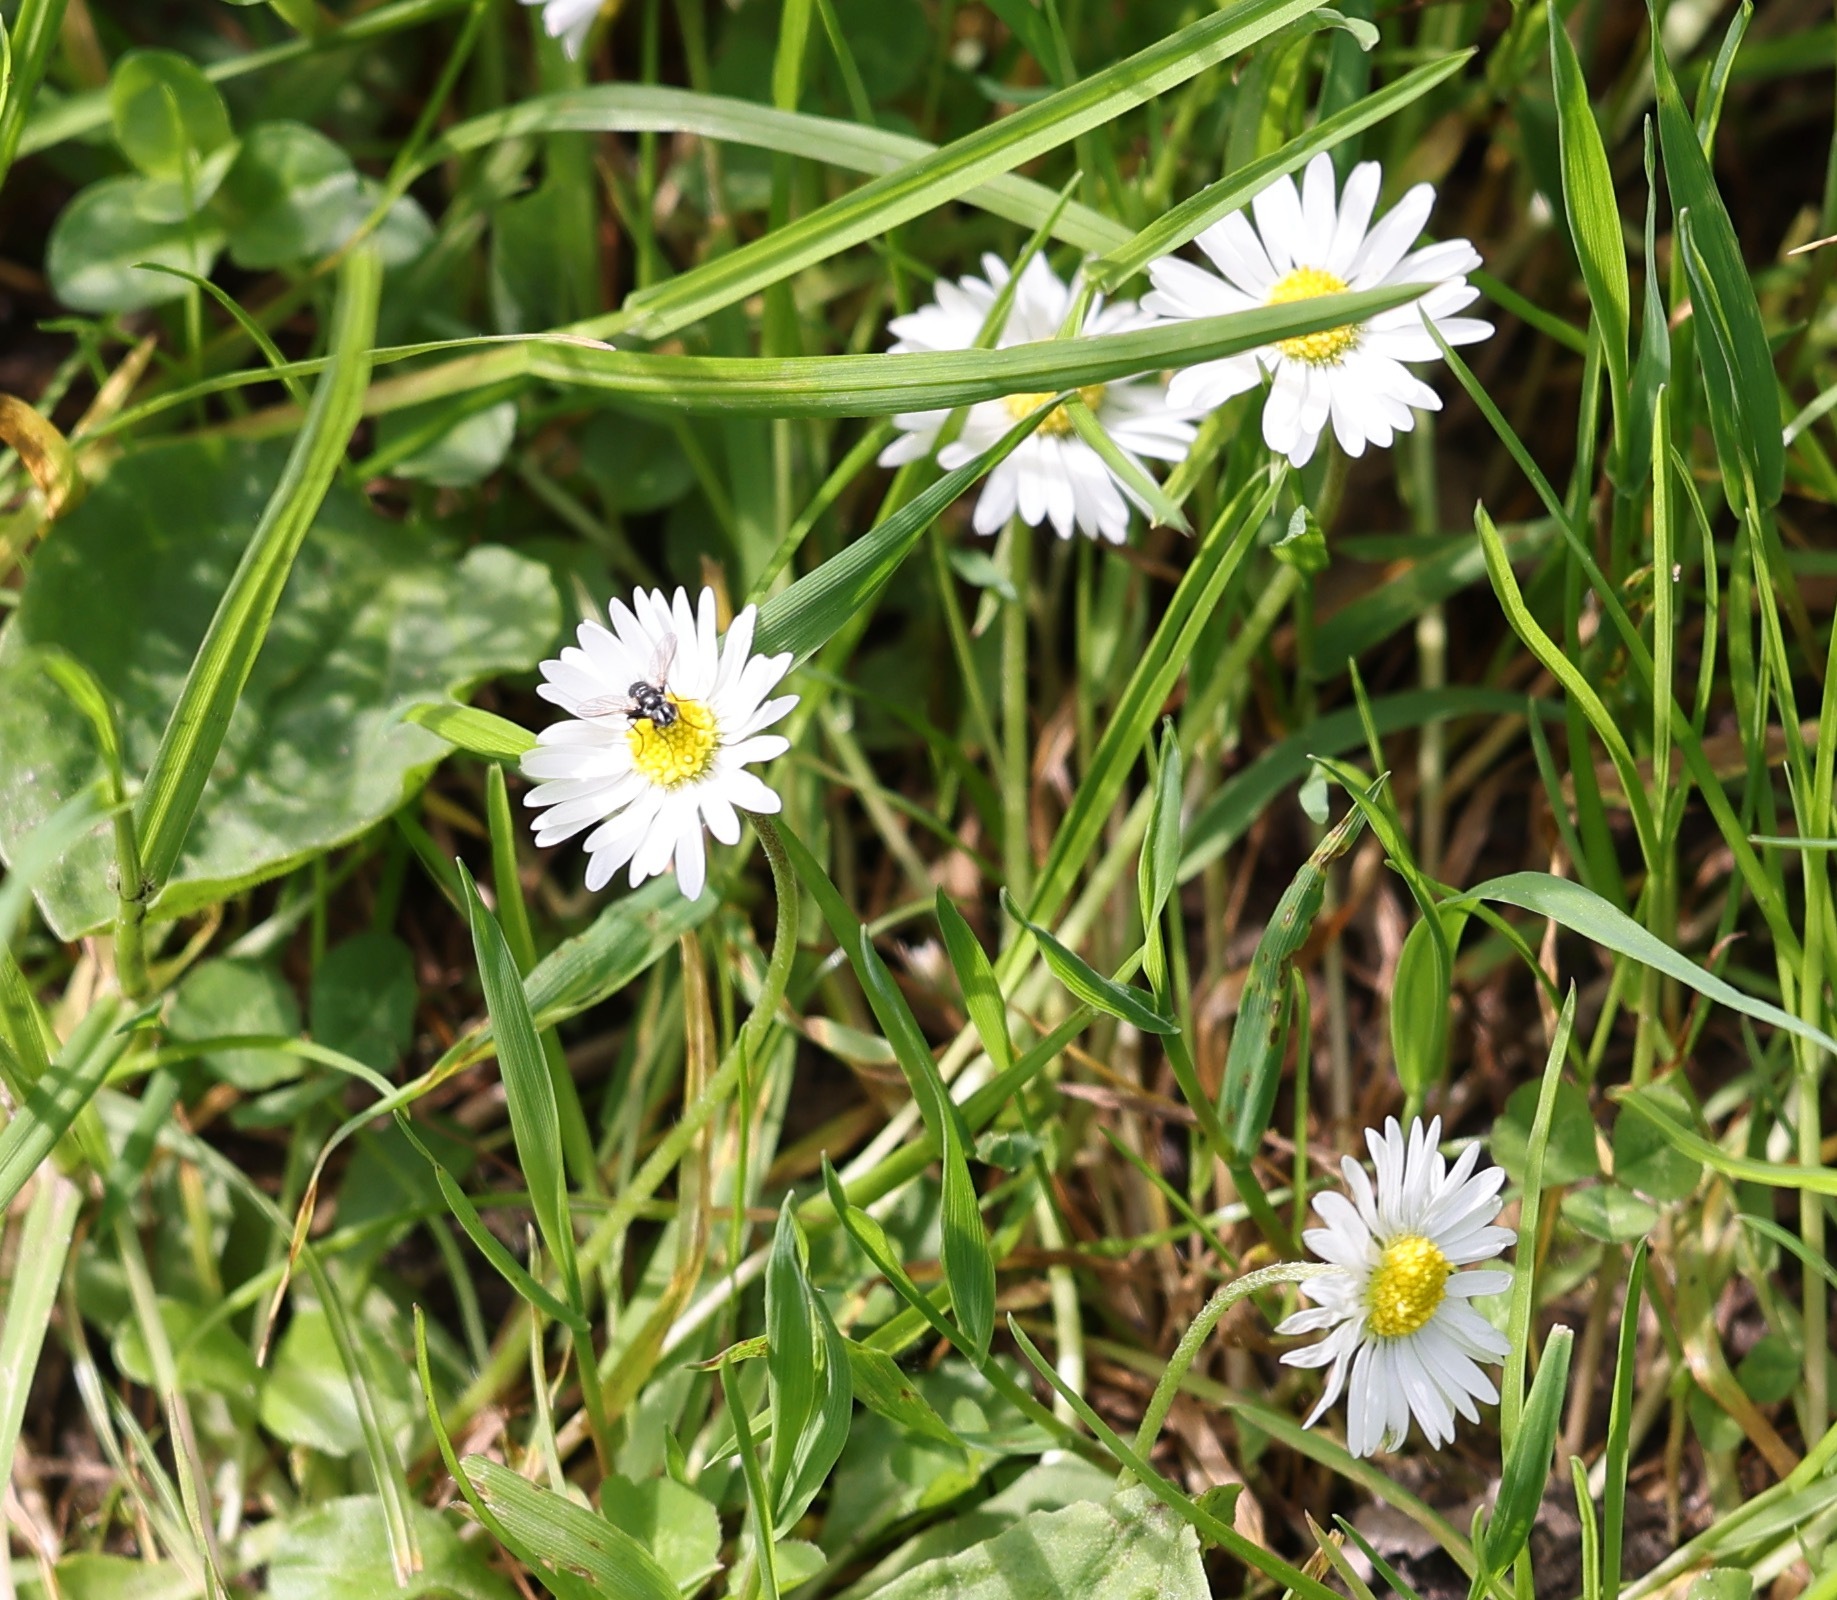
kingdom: Plantae
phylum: Tracheophyta
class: Magnoliopsida
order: Asterales
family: Asteraceae
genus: Bellis
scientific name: Bellis perennis
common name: Lawndaisy
